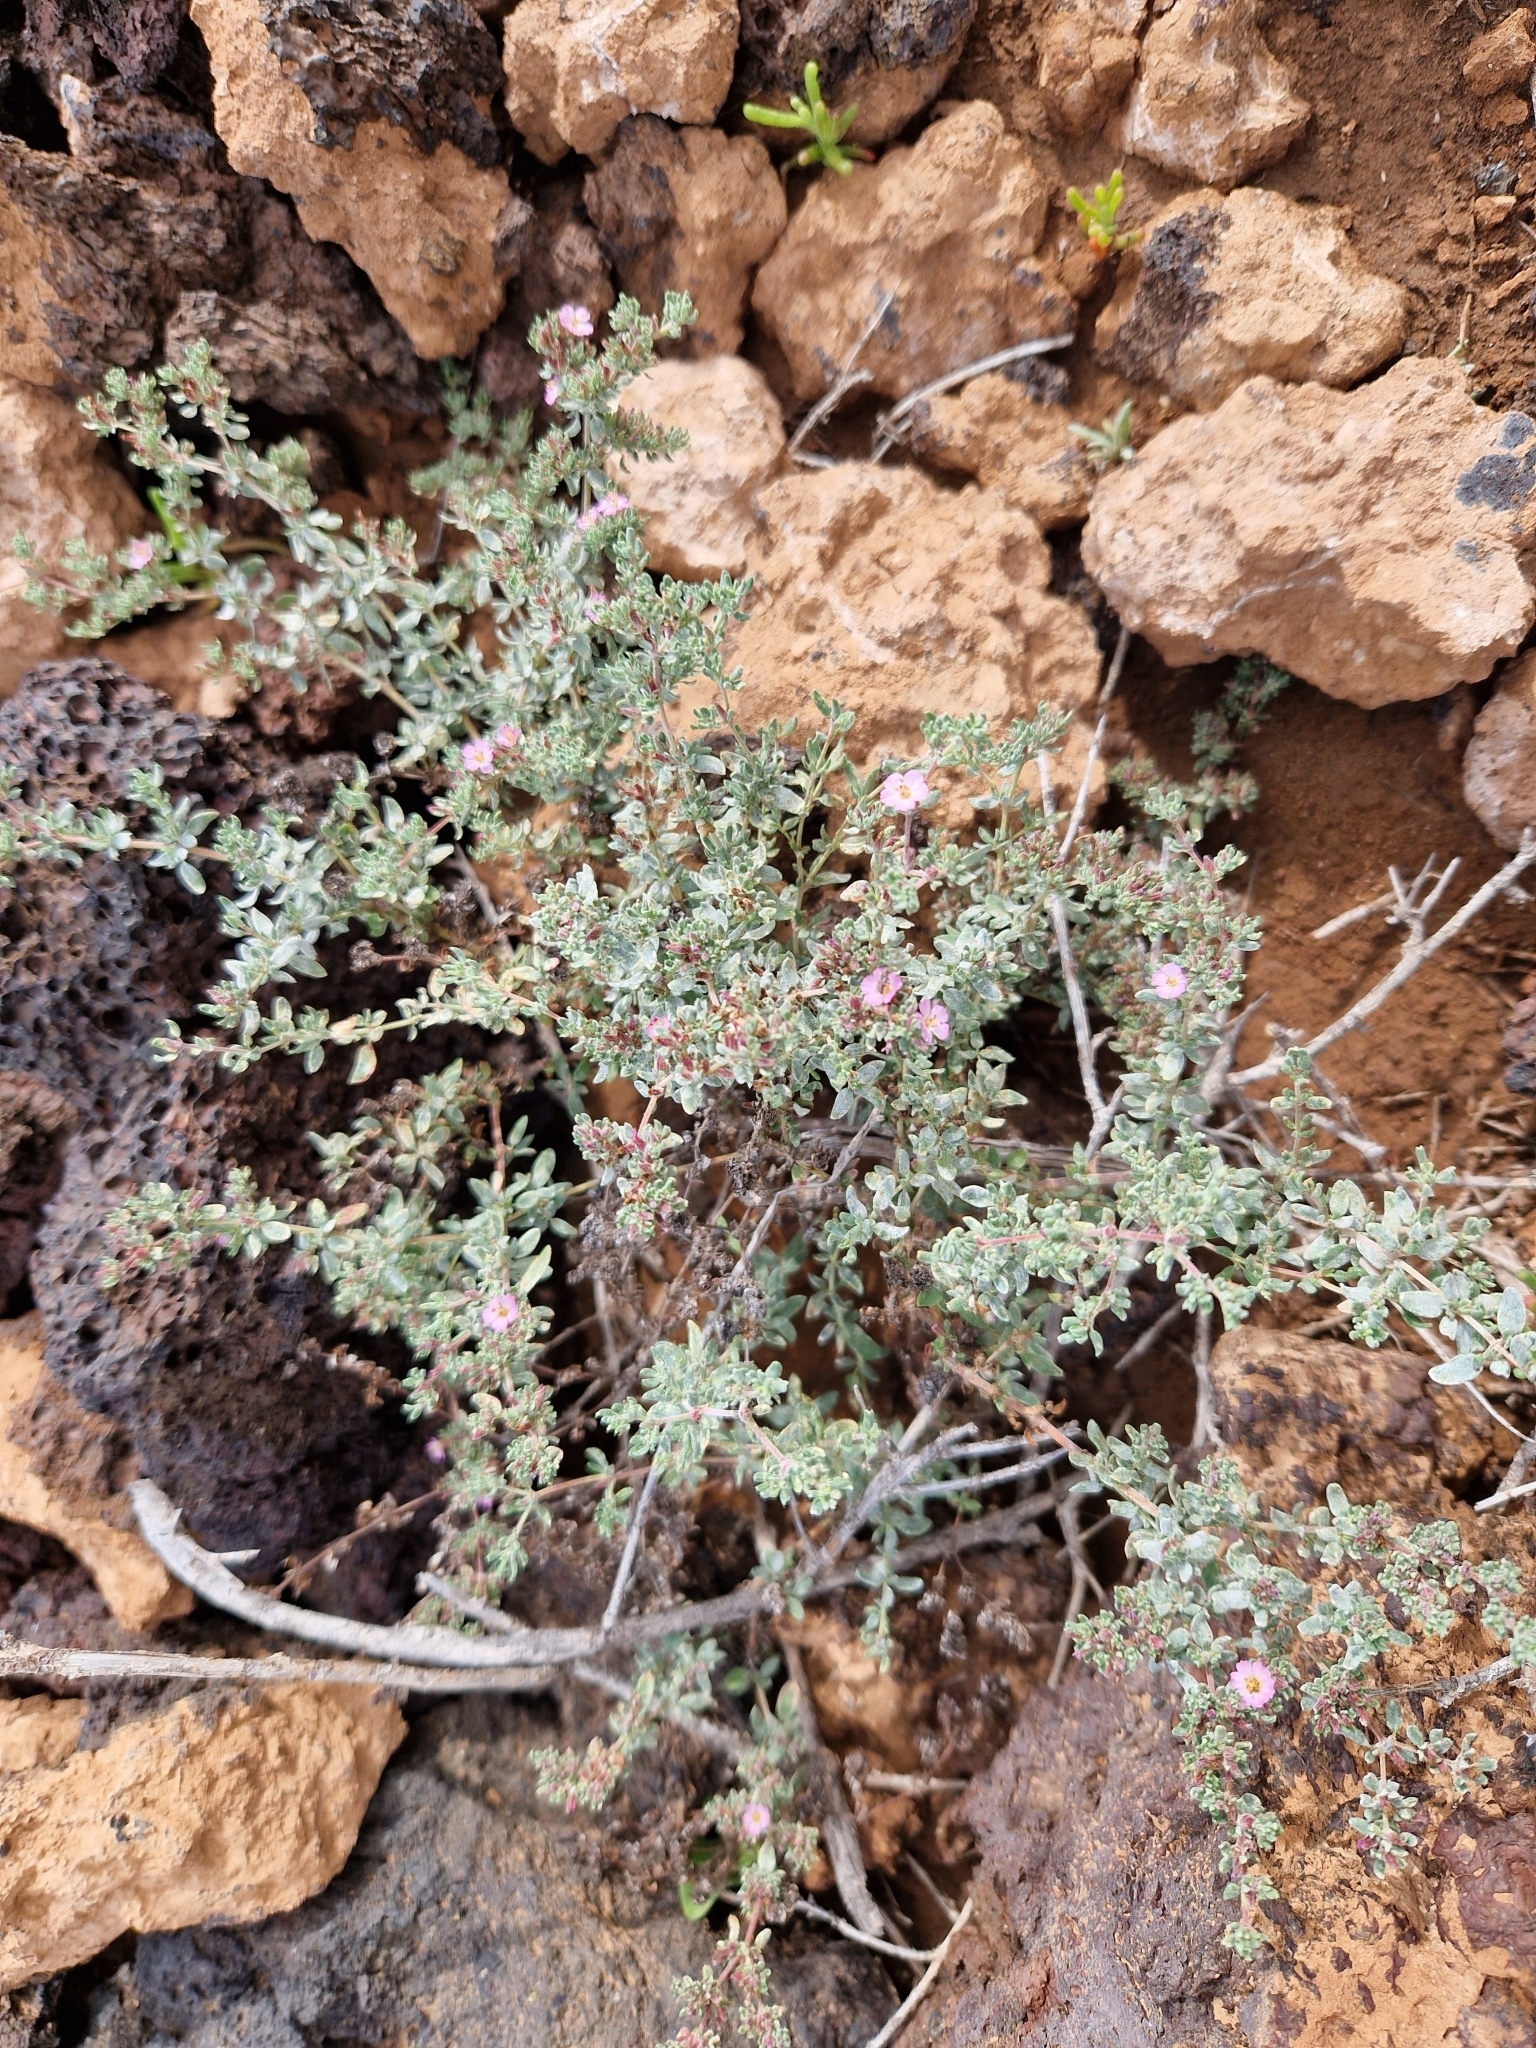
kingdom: Plantae
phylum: Tracheophyta
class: Magnoliopsida
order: Caryophyllales
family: Frankeniaceae
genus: Frankenia
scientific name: Frankenia pulverulenta
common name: European seaheath
